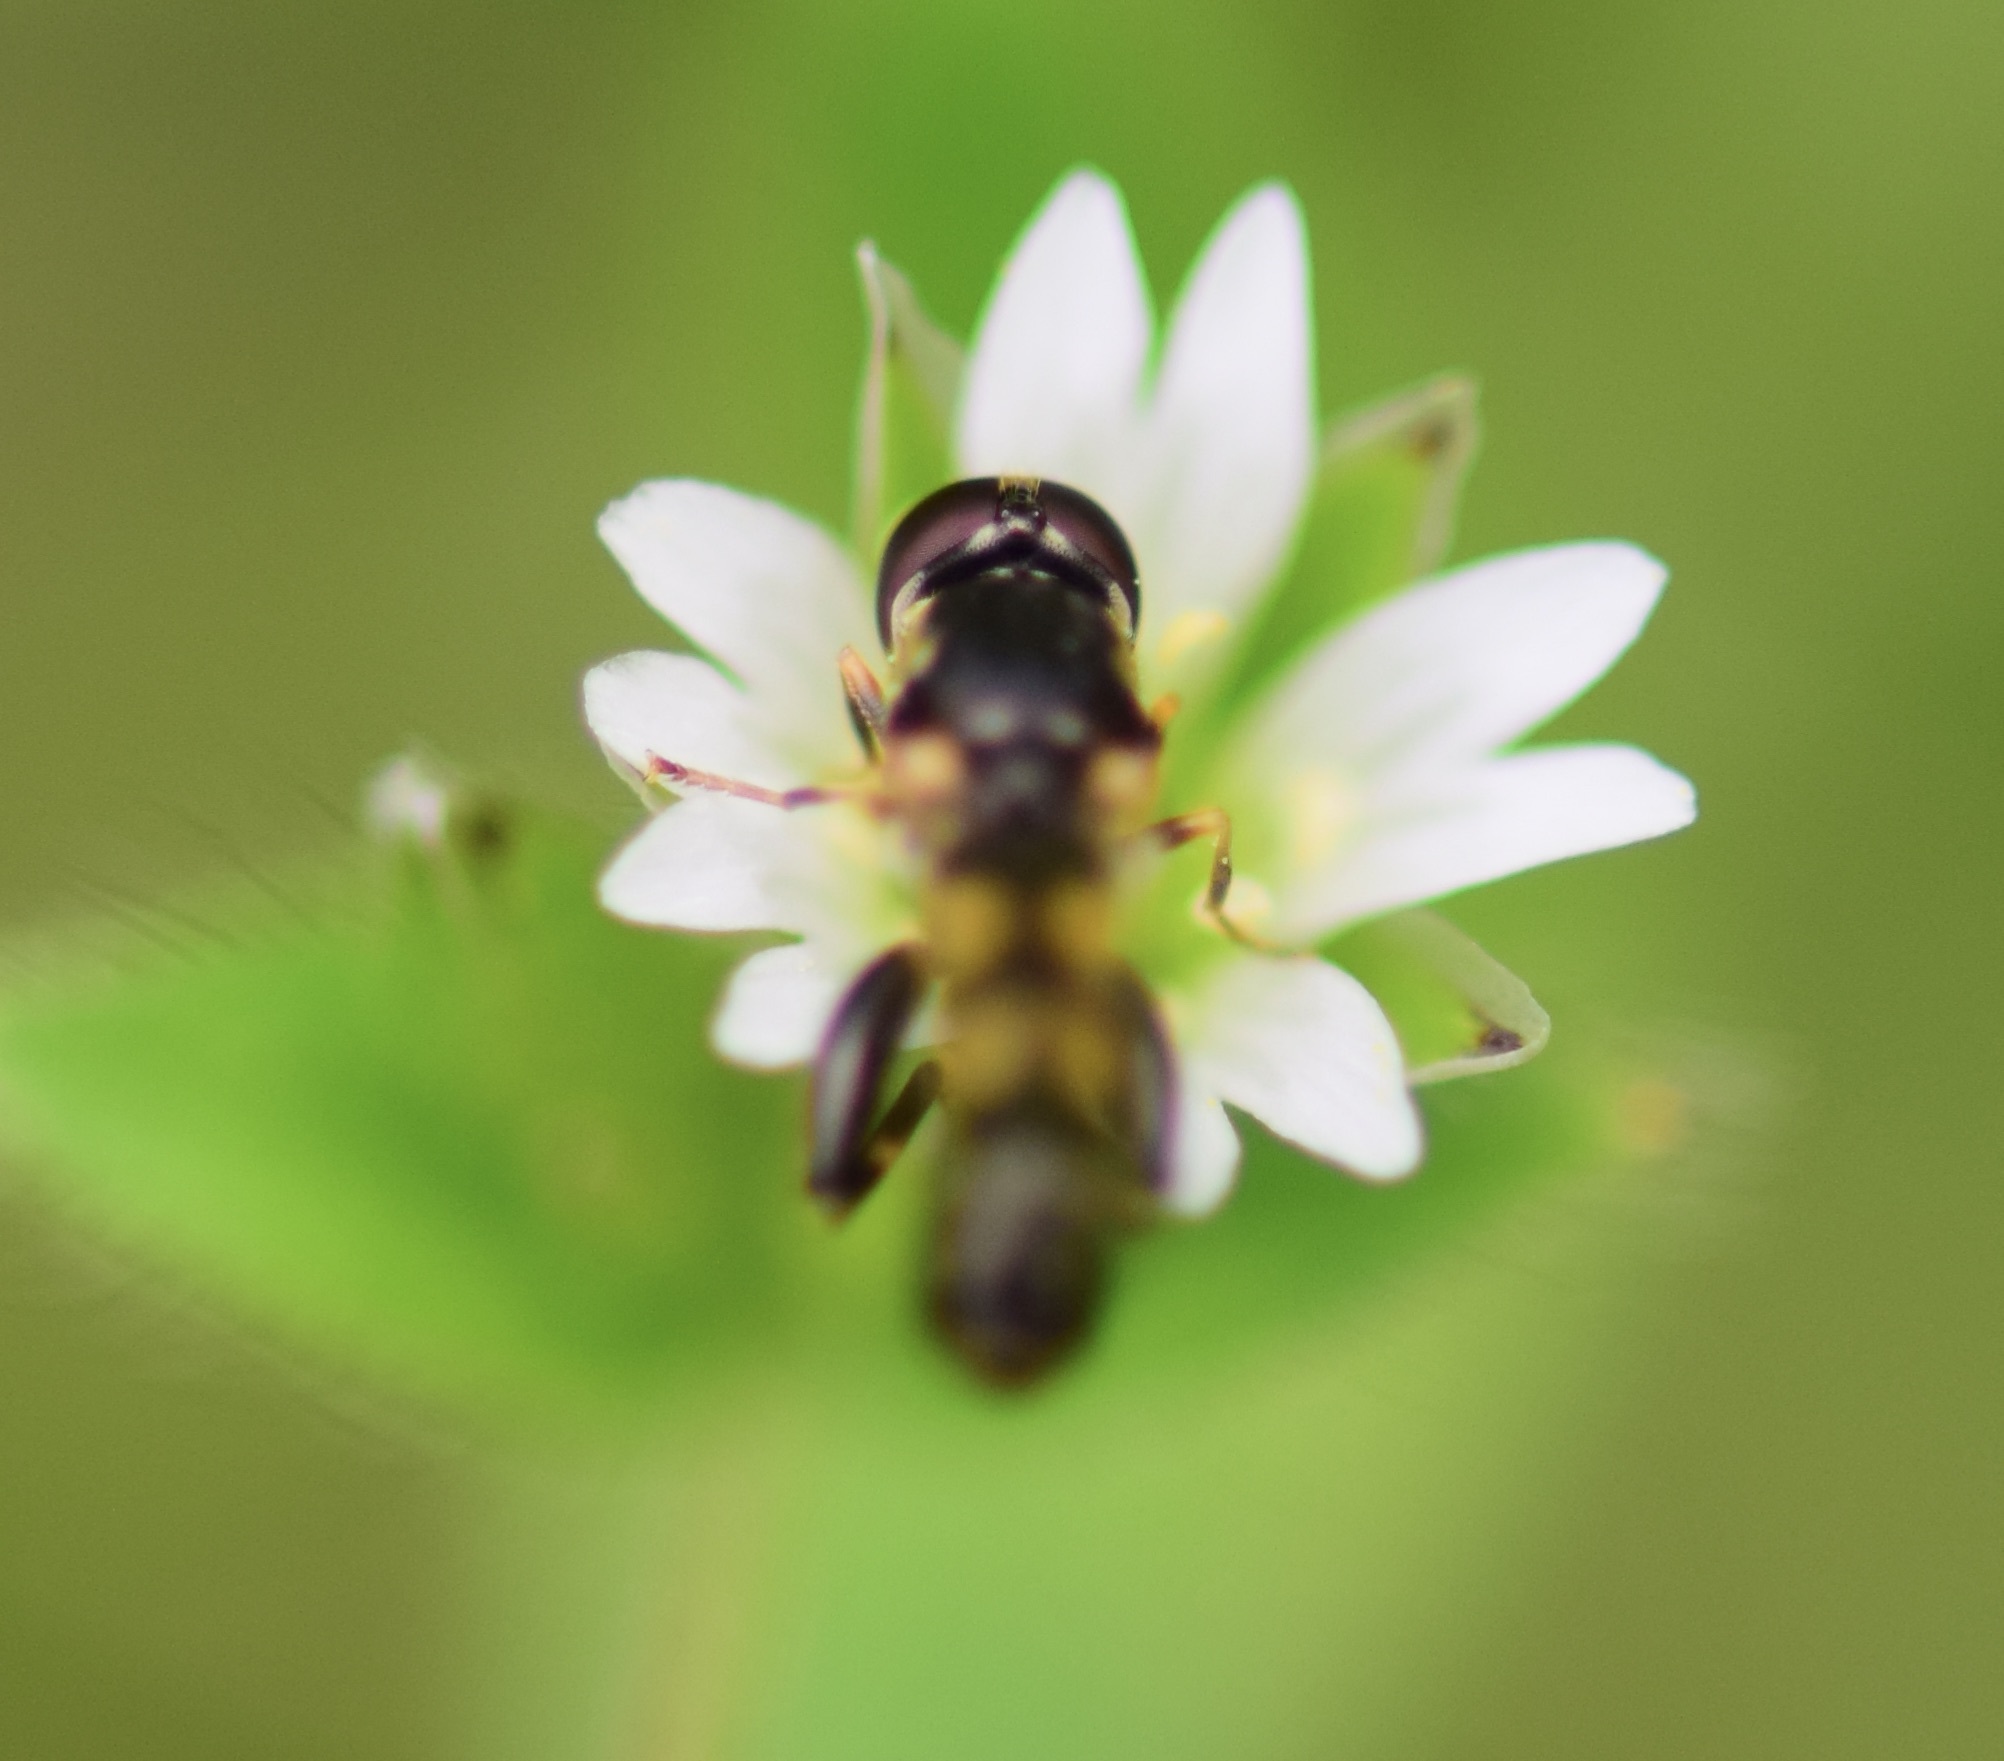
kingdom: Animalia
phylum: Arthropoda
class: Insecta
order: Diptera
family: Syrphidae
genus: Syritta
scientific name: Syritta pipiens
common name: Hover fly
